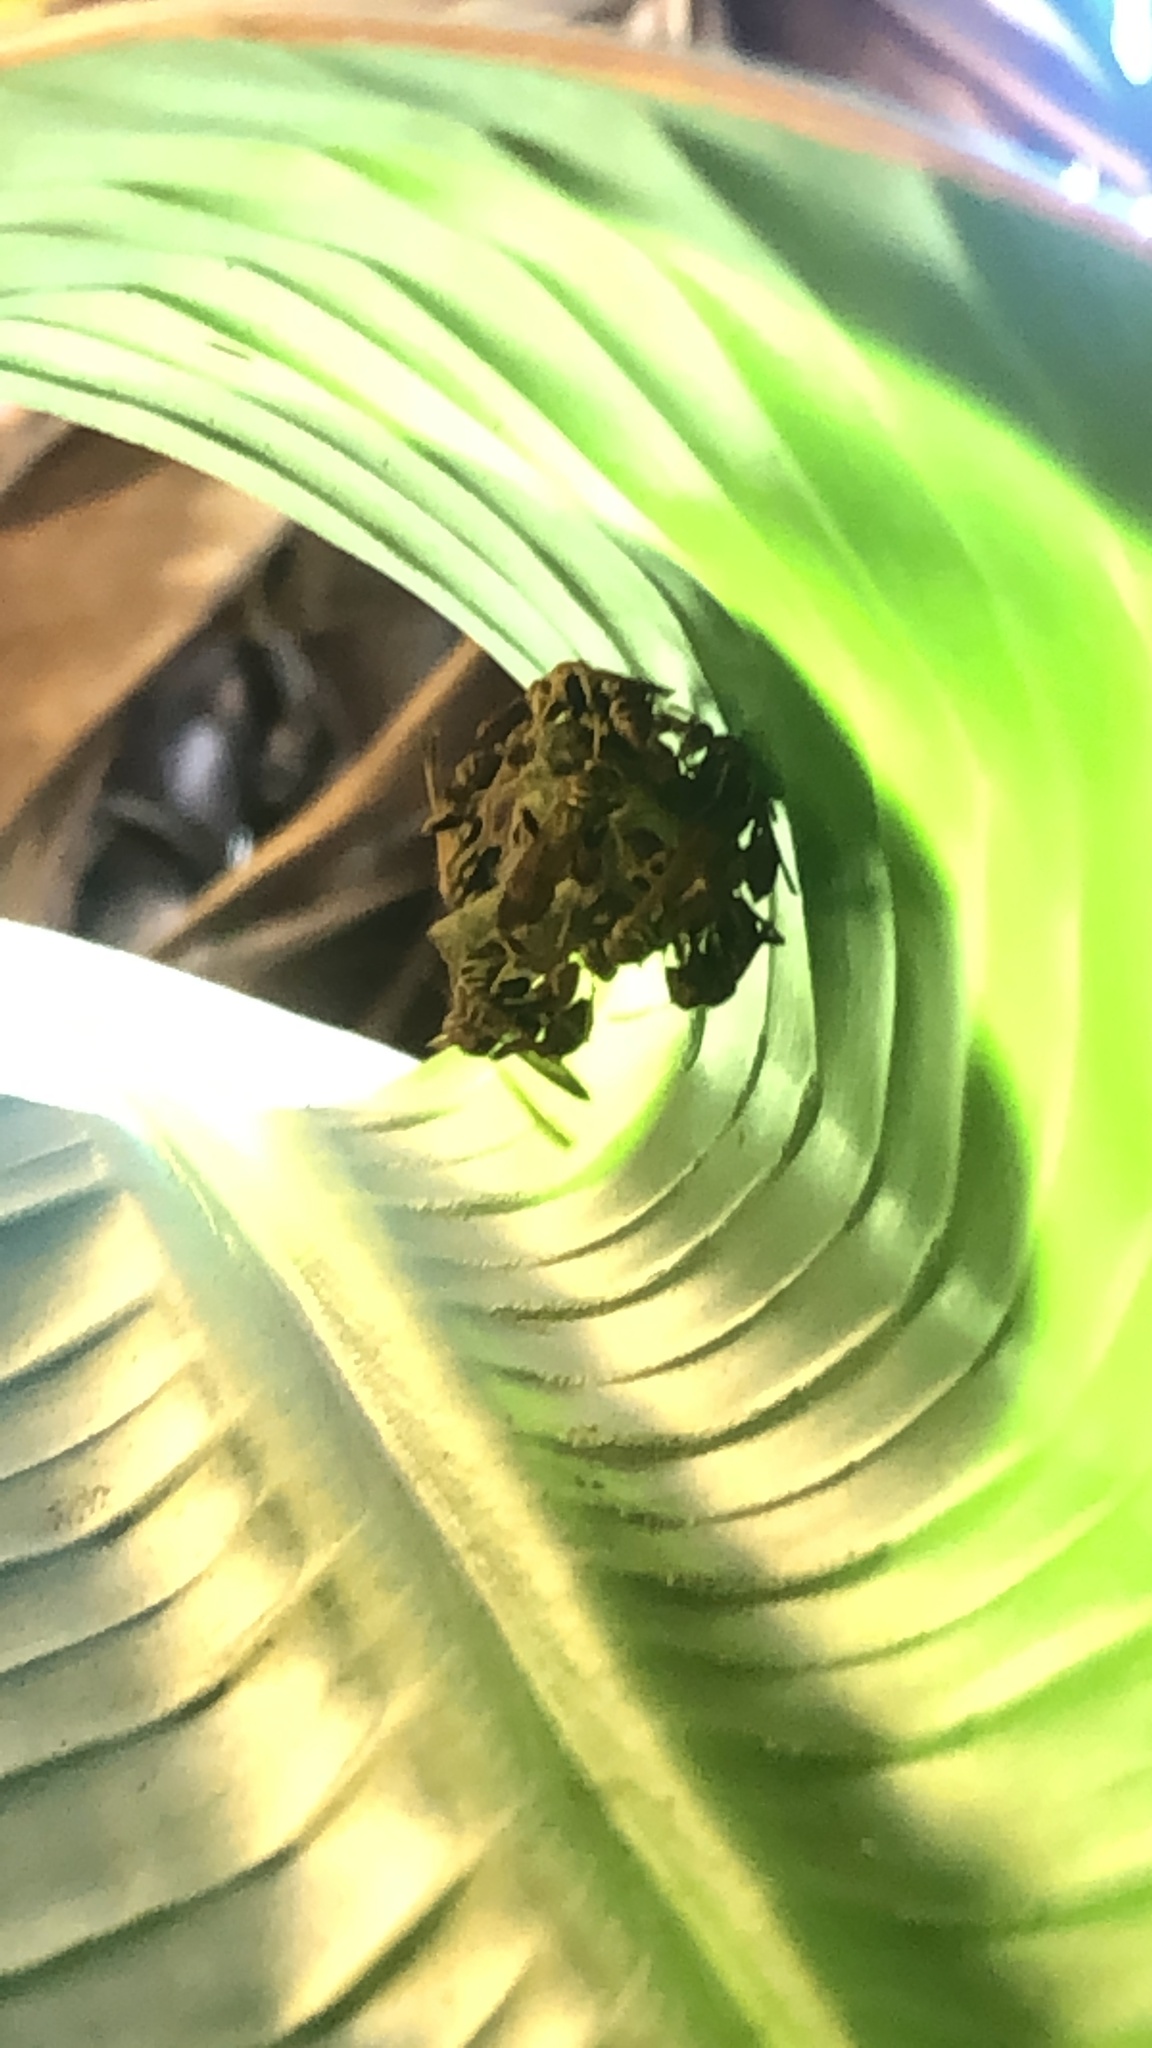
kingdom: Animalia
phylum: Arthropoda
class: Insecta
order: Hymenoptera
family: Vespidae
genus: Mischocyttarus
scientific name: Mischocyttarus mexicanus
